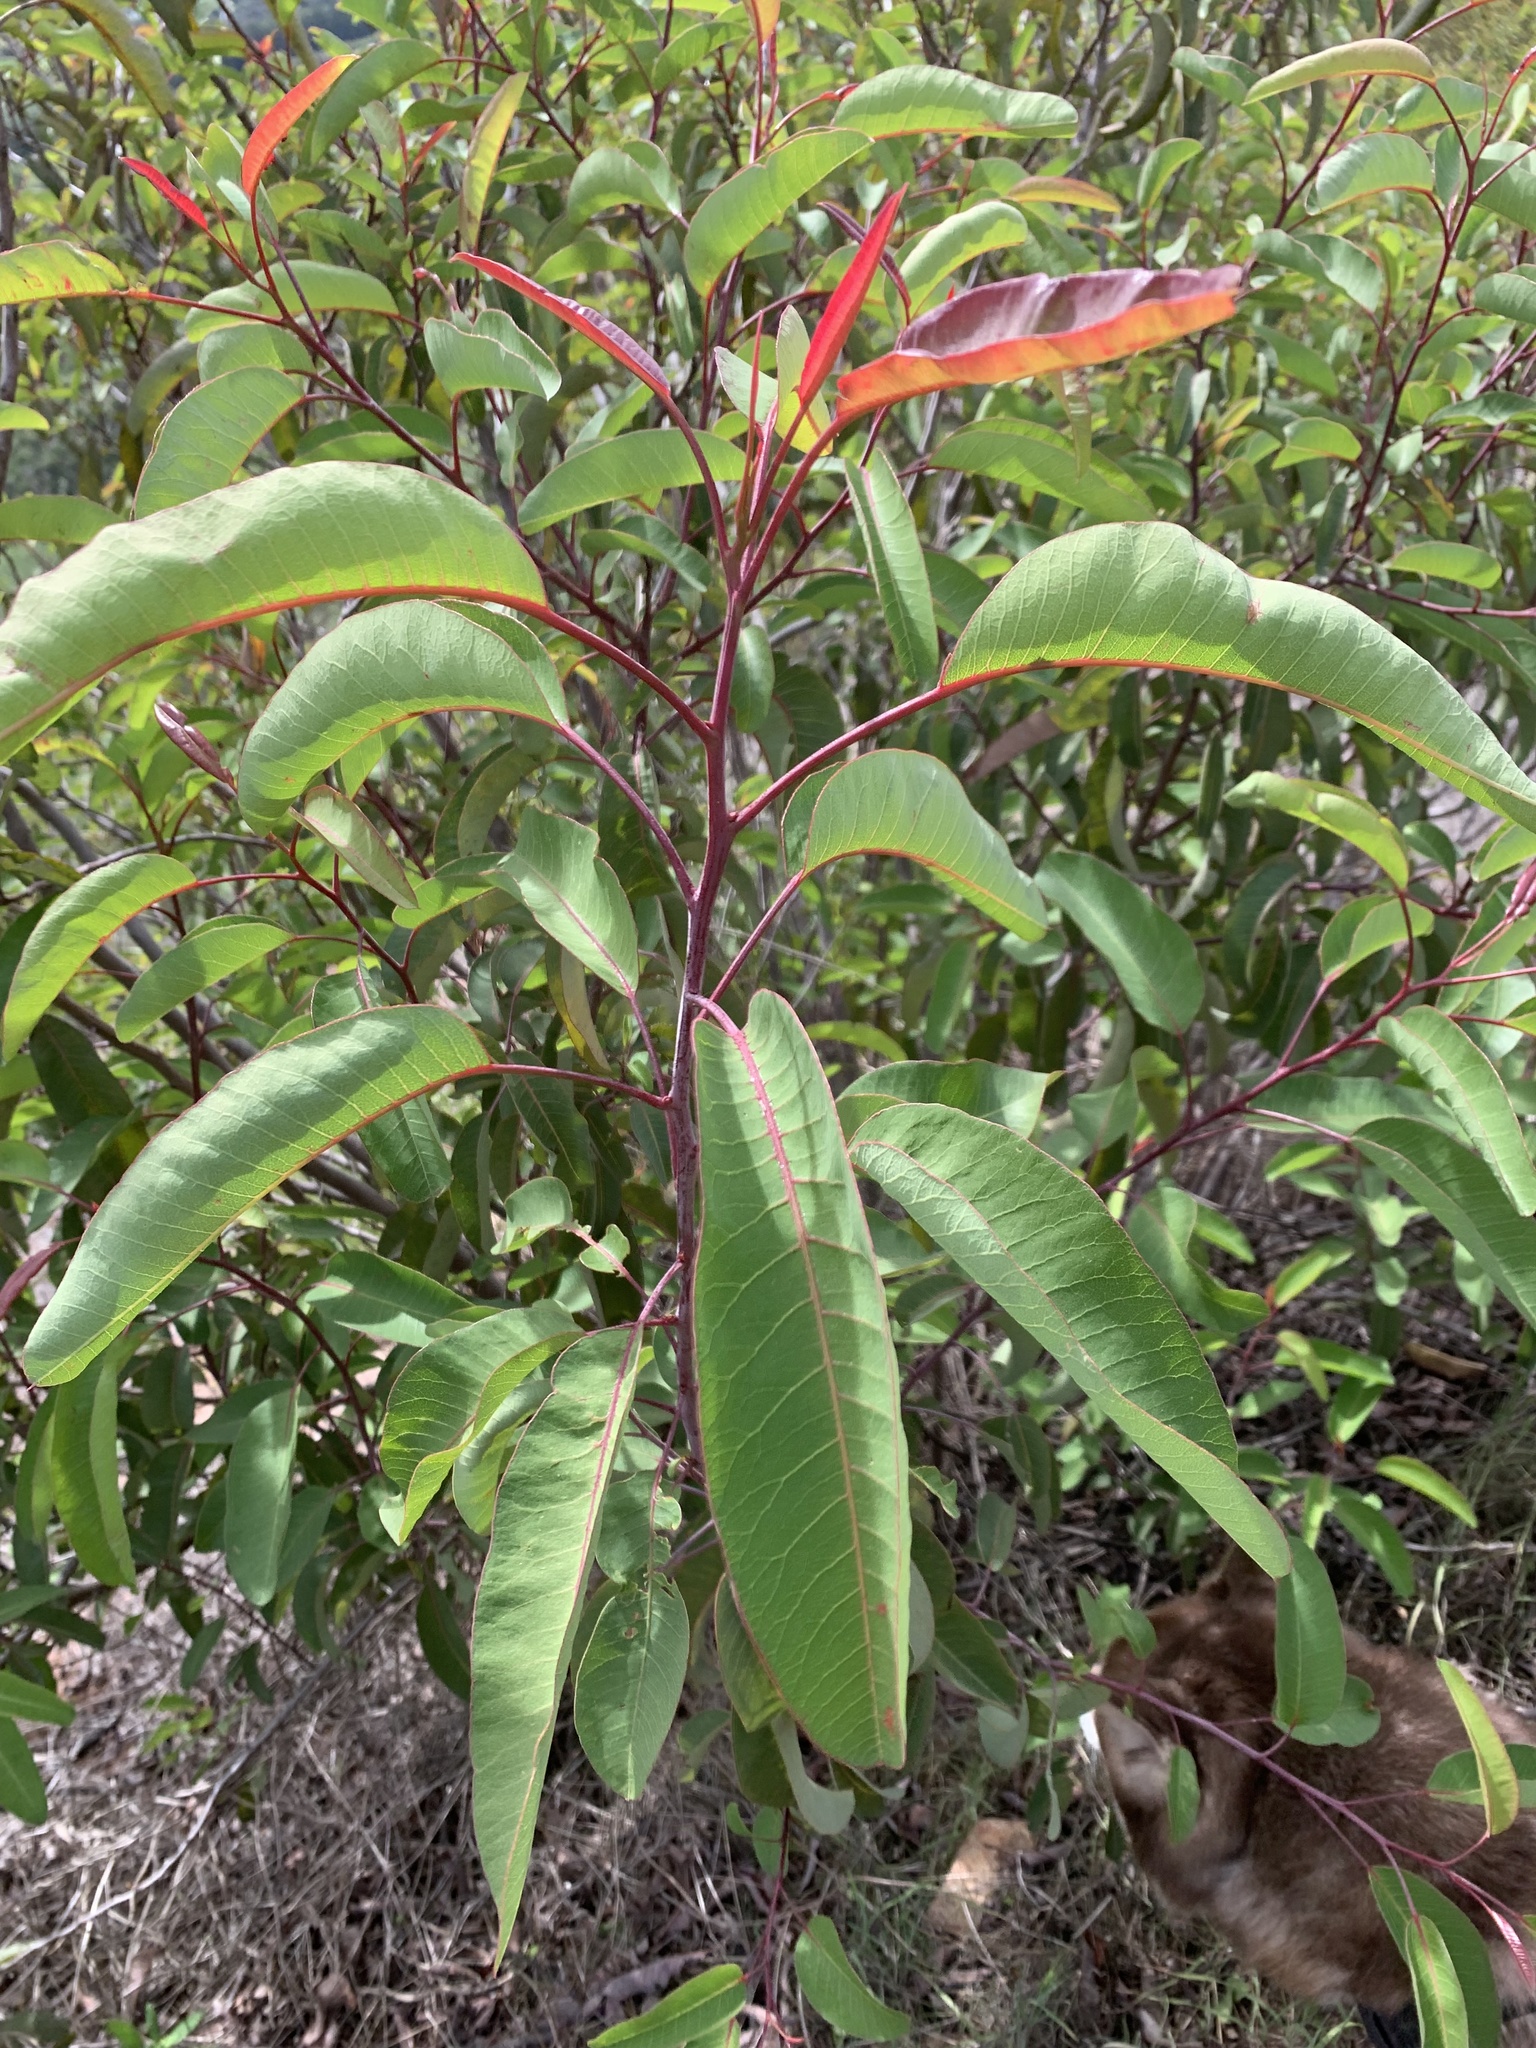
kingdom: Plantae
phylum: Tracheophyta
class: Magnoliopsida
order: Sapindales
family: Anacardiaceae
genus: Malosma
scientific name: Malosma laurina
